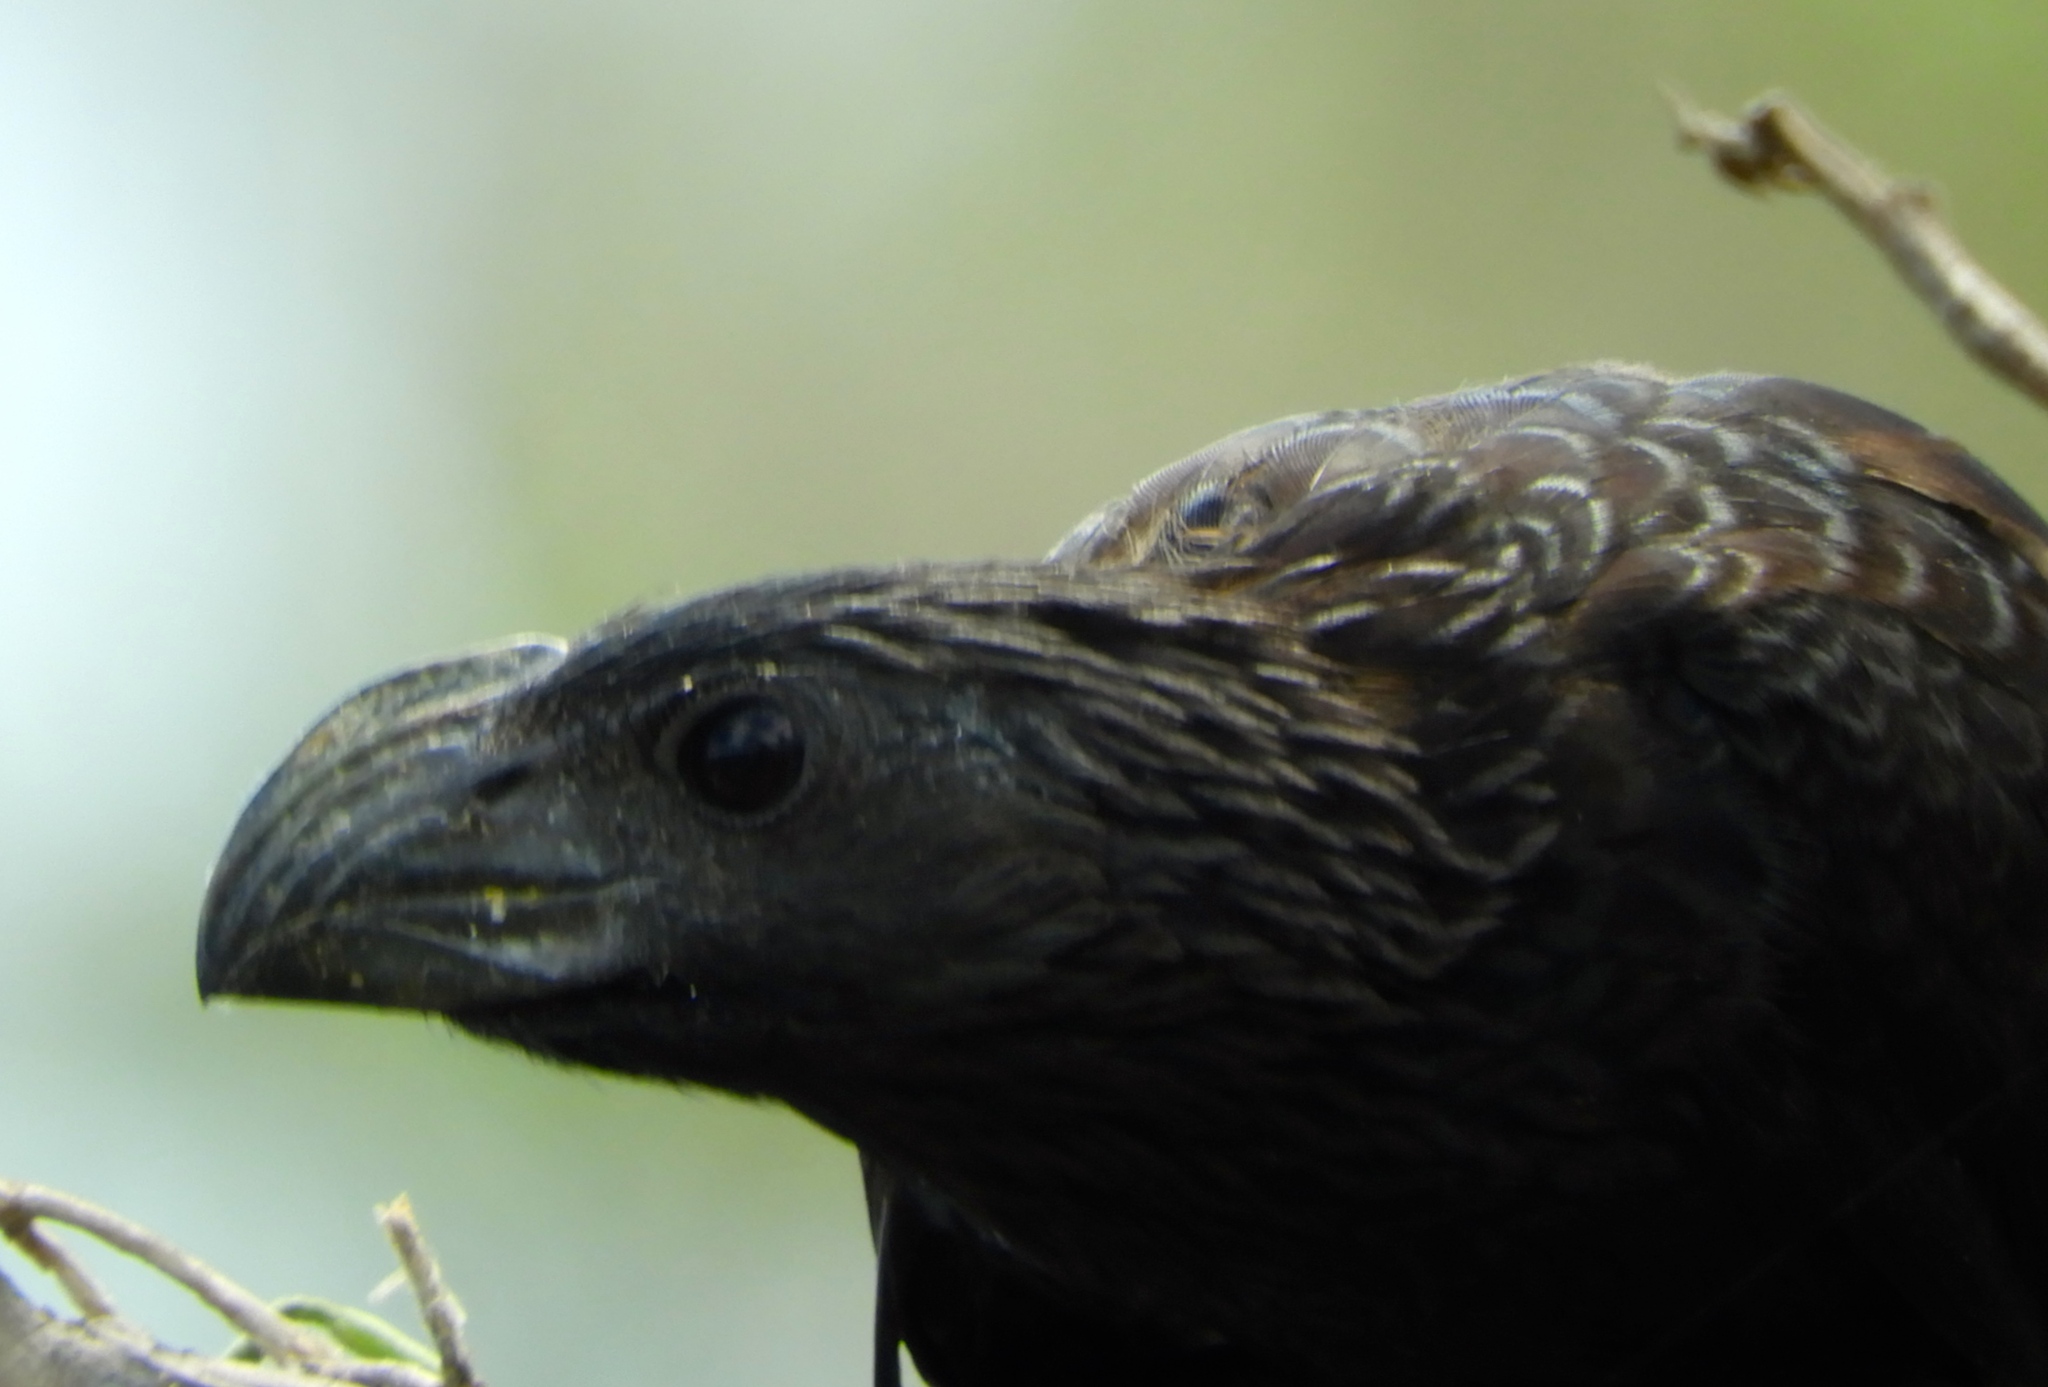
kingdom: Animalia
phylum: Chordata
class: Aves
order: Cuculiformes
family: Cuculidae
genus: Crotophaga
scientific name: Crotophaga sulcirostris
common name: Groove-billed ani
